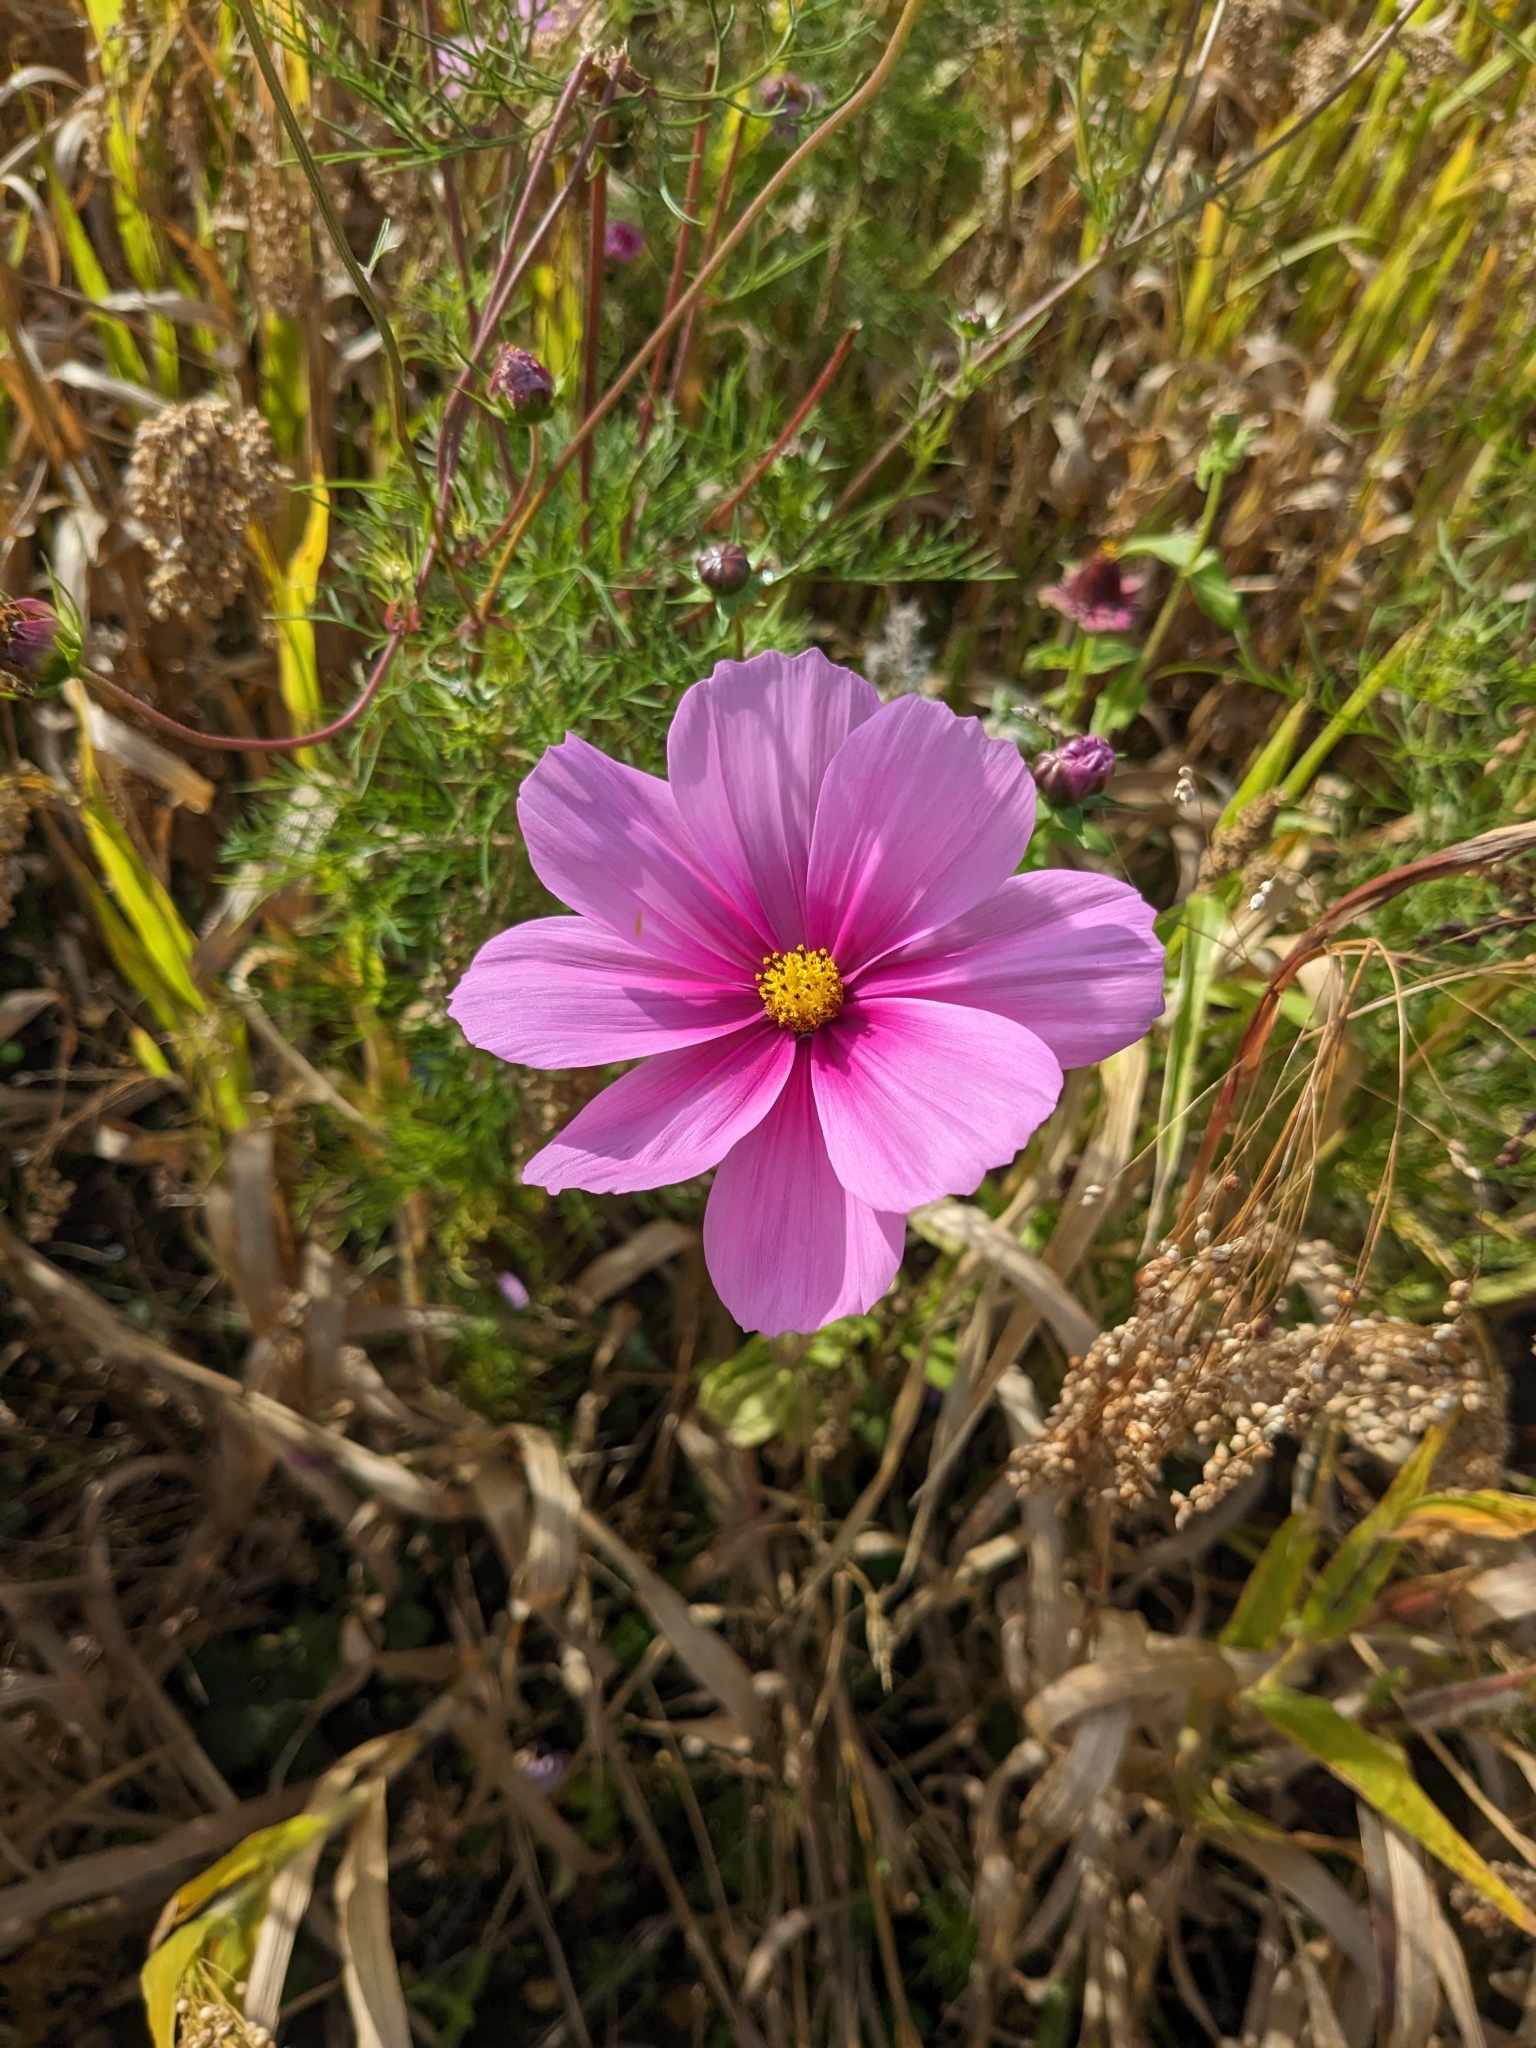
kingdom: Plantae
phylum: Tracheophyta
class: Magnoliopsida
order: Asterales
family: Asteraceae
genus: Cosmos
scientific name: Cosmos bipinnatus
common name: Garden cosmos
